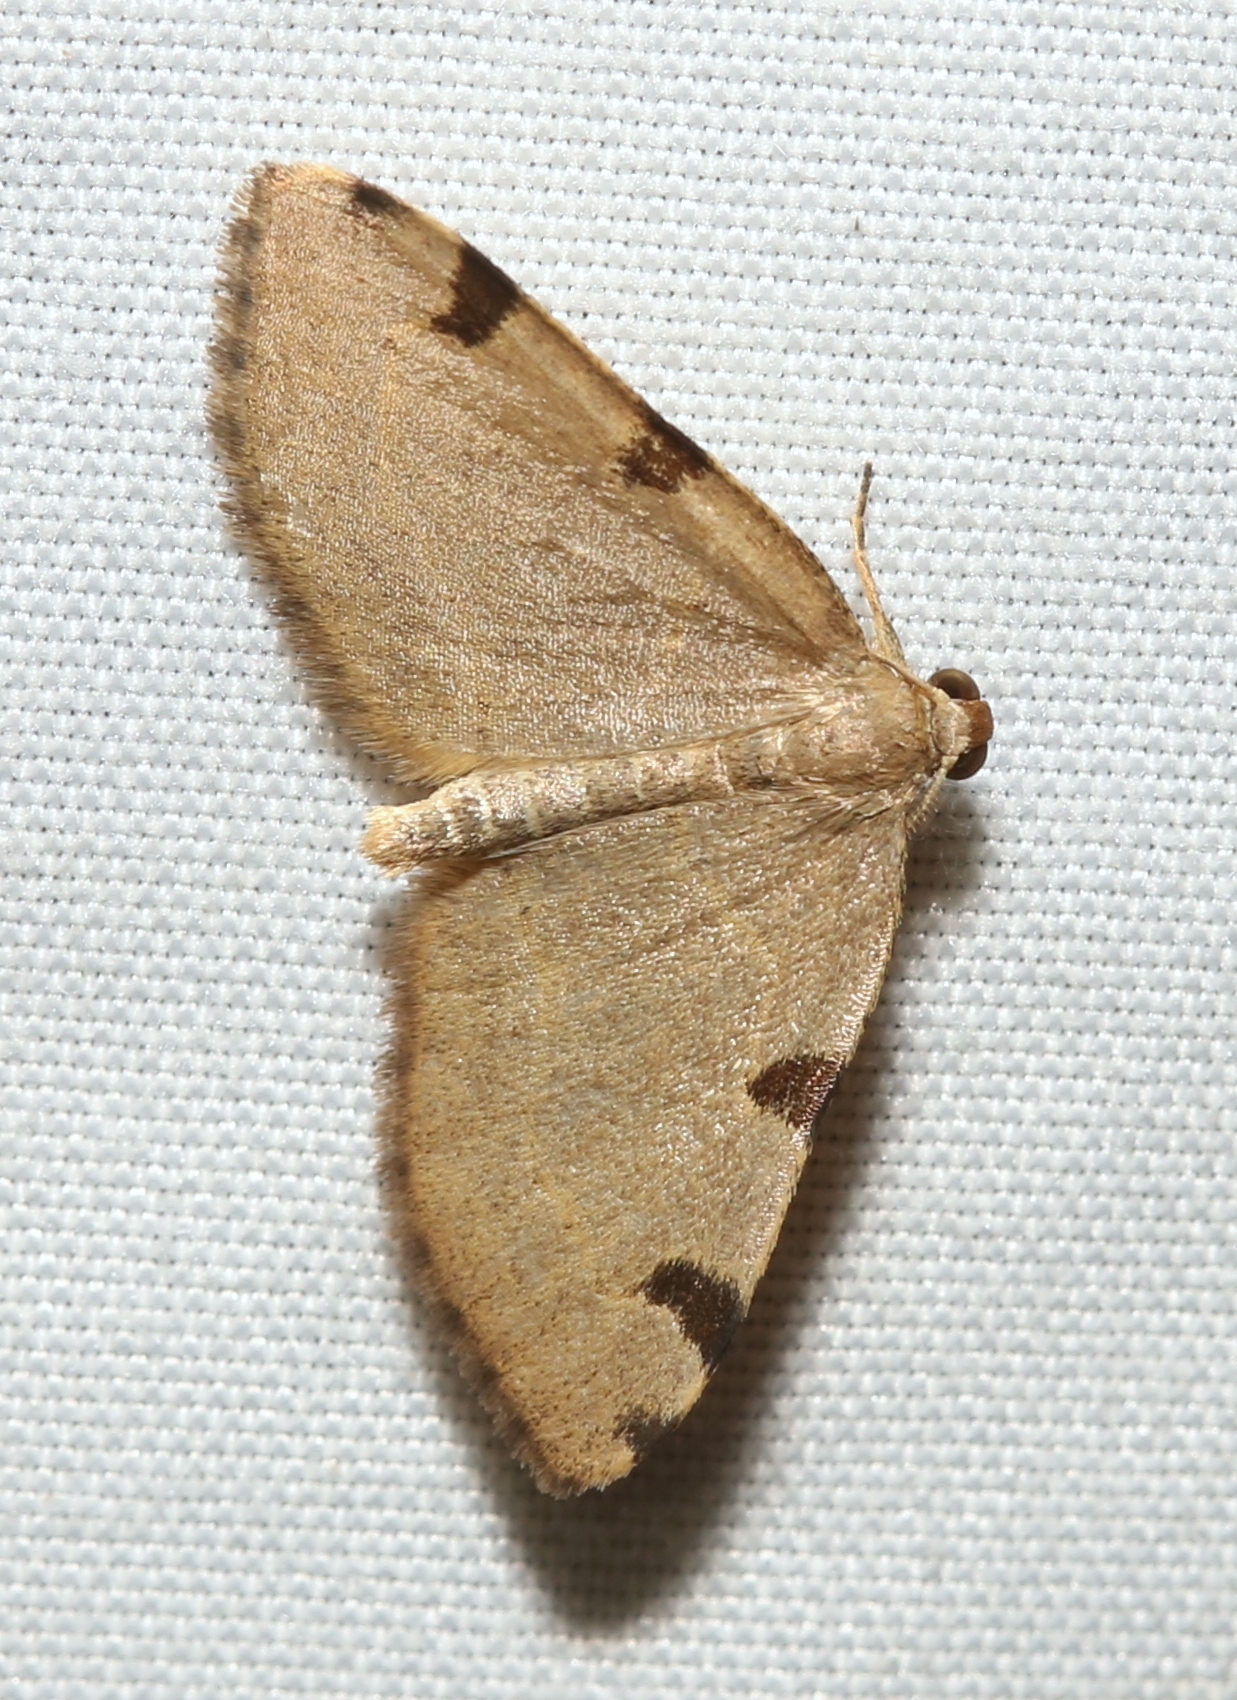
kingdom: Animalia
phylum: Arthropoda
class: Insecta
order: Lepidoptera
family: Geometridae
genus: Heterophleps
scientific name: Heterophleps triguttaria
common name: Three-spotted fillip
